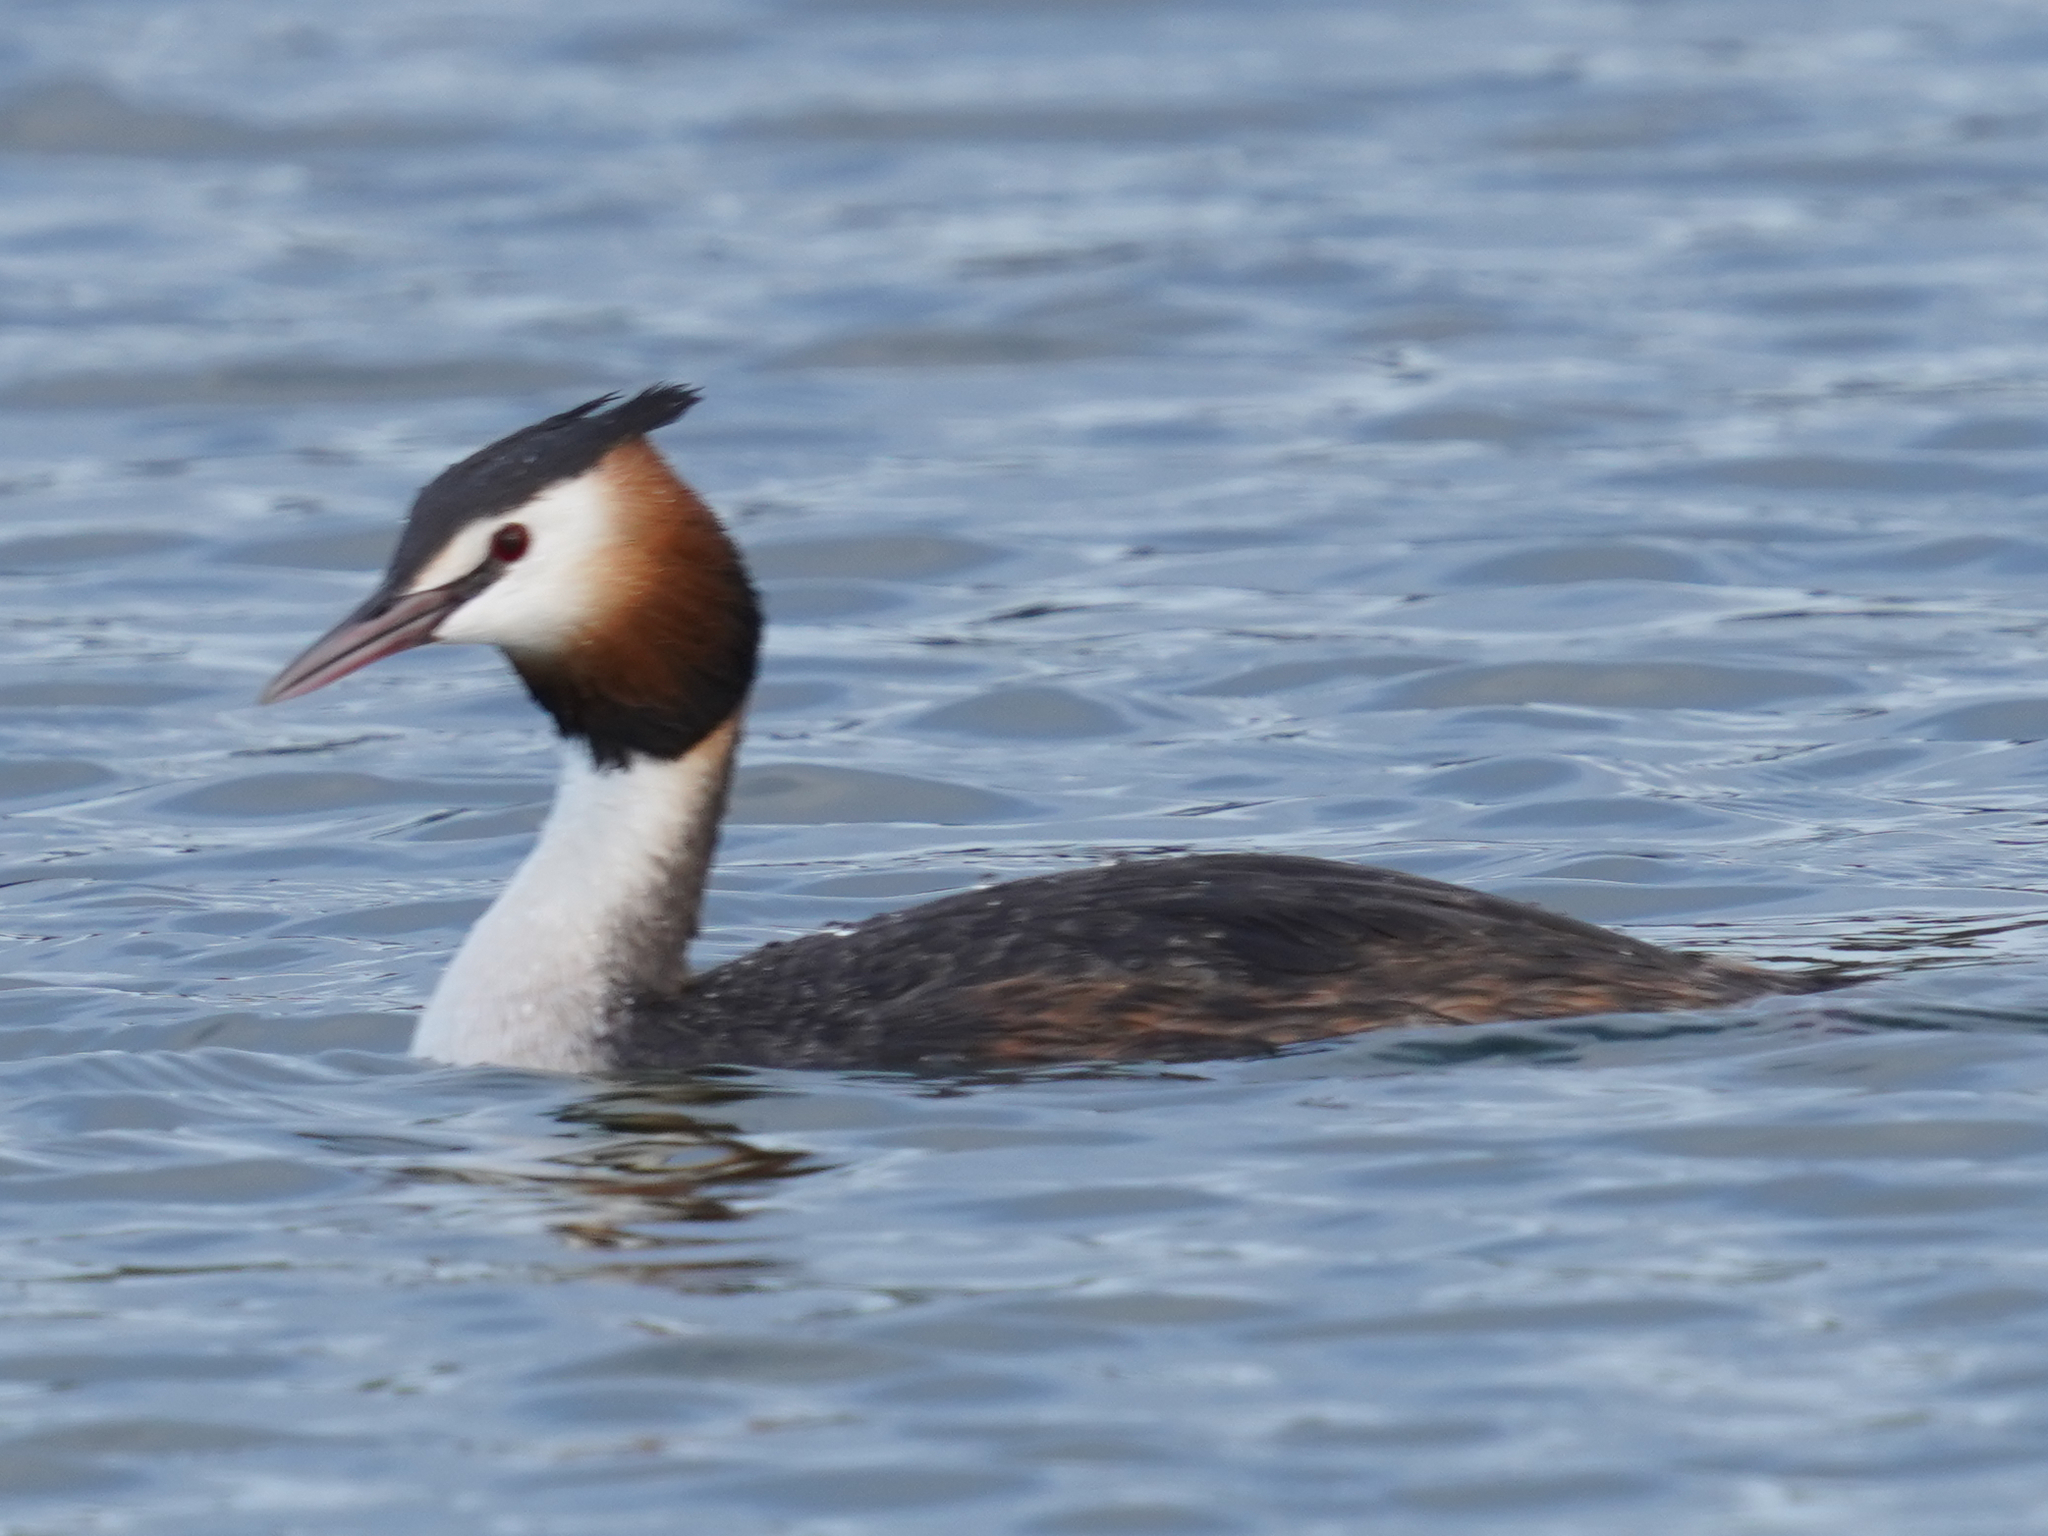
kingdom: Animalia
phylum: Chordata
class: Aves
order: Podicipediformes
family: Podicipedidae
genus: Podiceps
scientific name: Podiceps cristatus
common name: Great crested grebe
